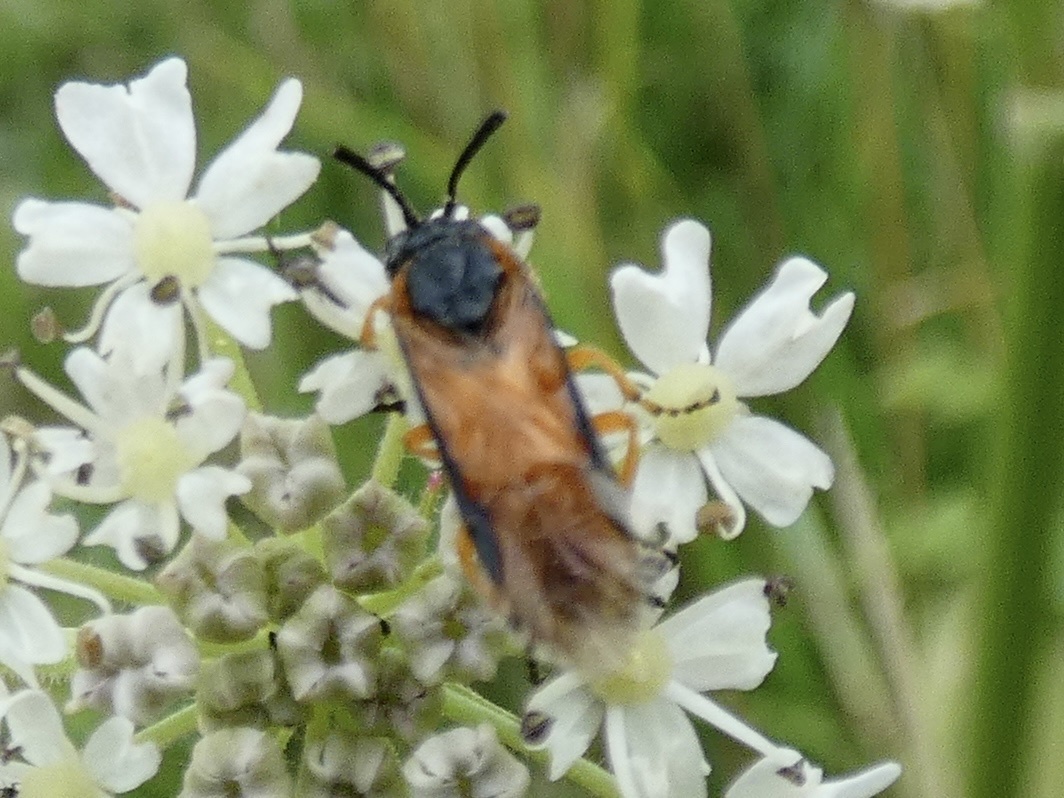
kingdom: Animalia
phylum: Arthropoda
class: Insecta
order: Hymenoptera
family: Argidae
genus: Arge
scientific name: Arge ochropus
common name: Argid sawfly
